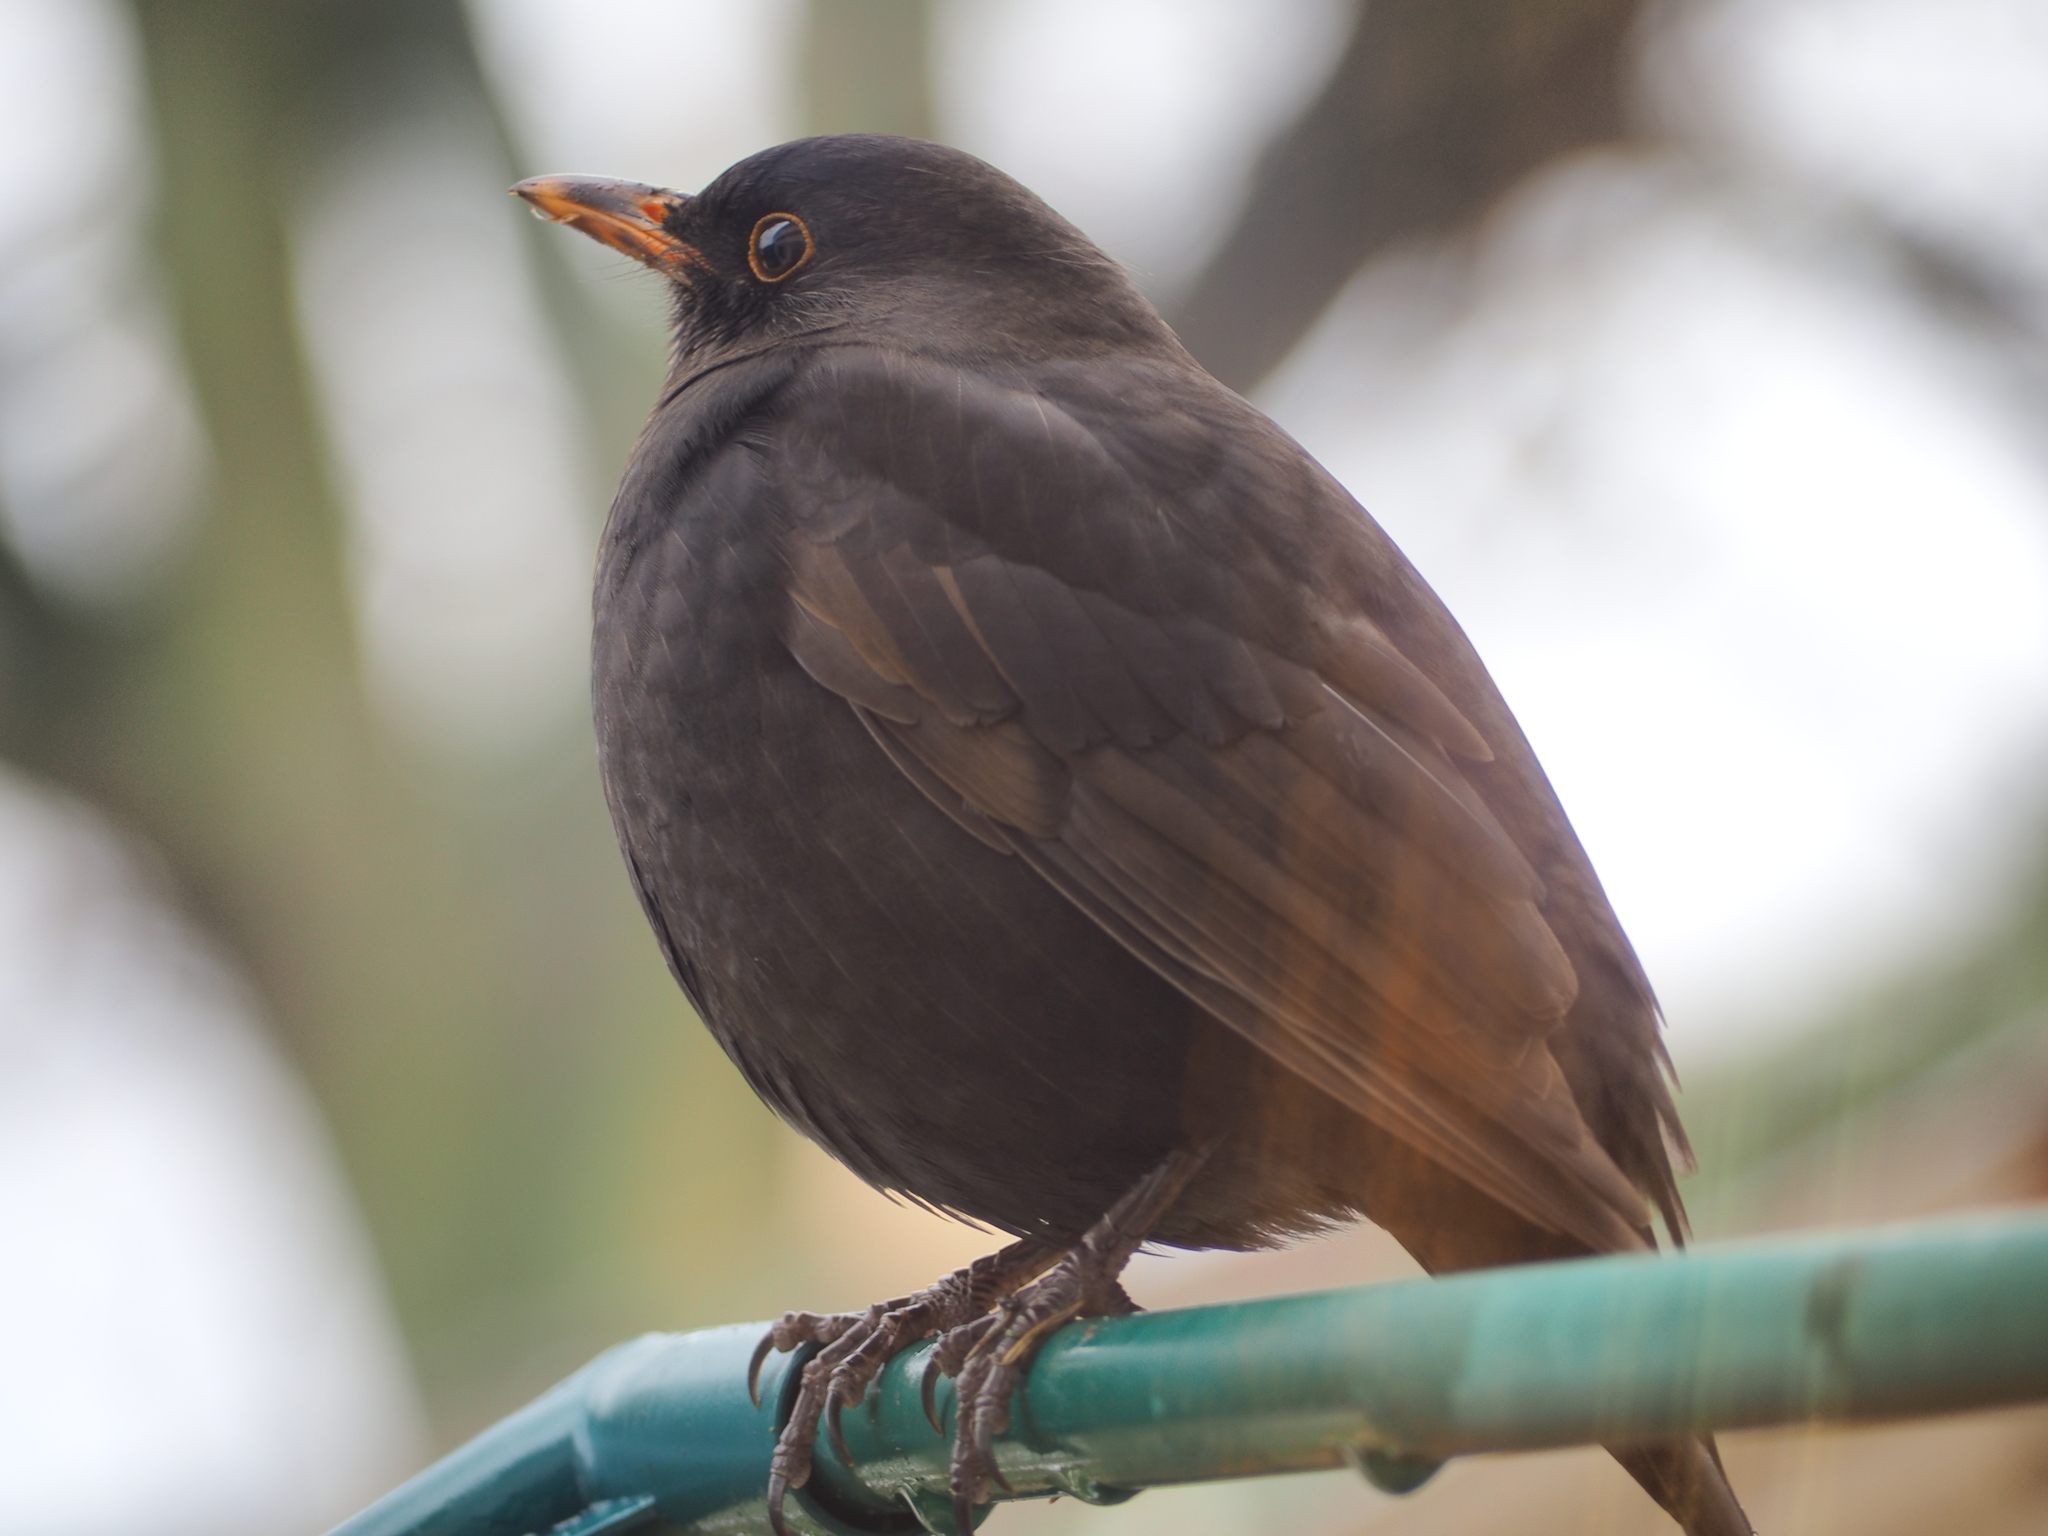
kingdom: Animalia
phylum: Chordata
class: Aves
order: Passeriformes
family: Turdidae
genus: Turdus
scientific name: Turdus merula
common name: Common blackbird
